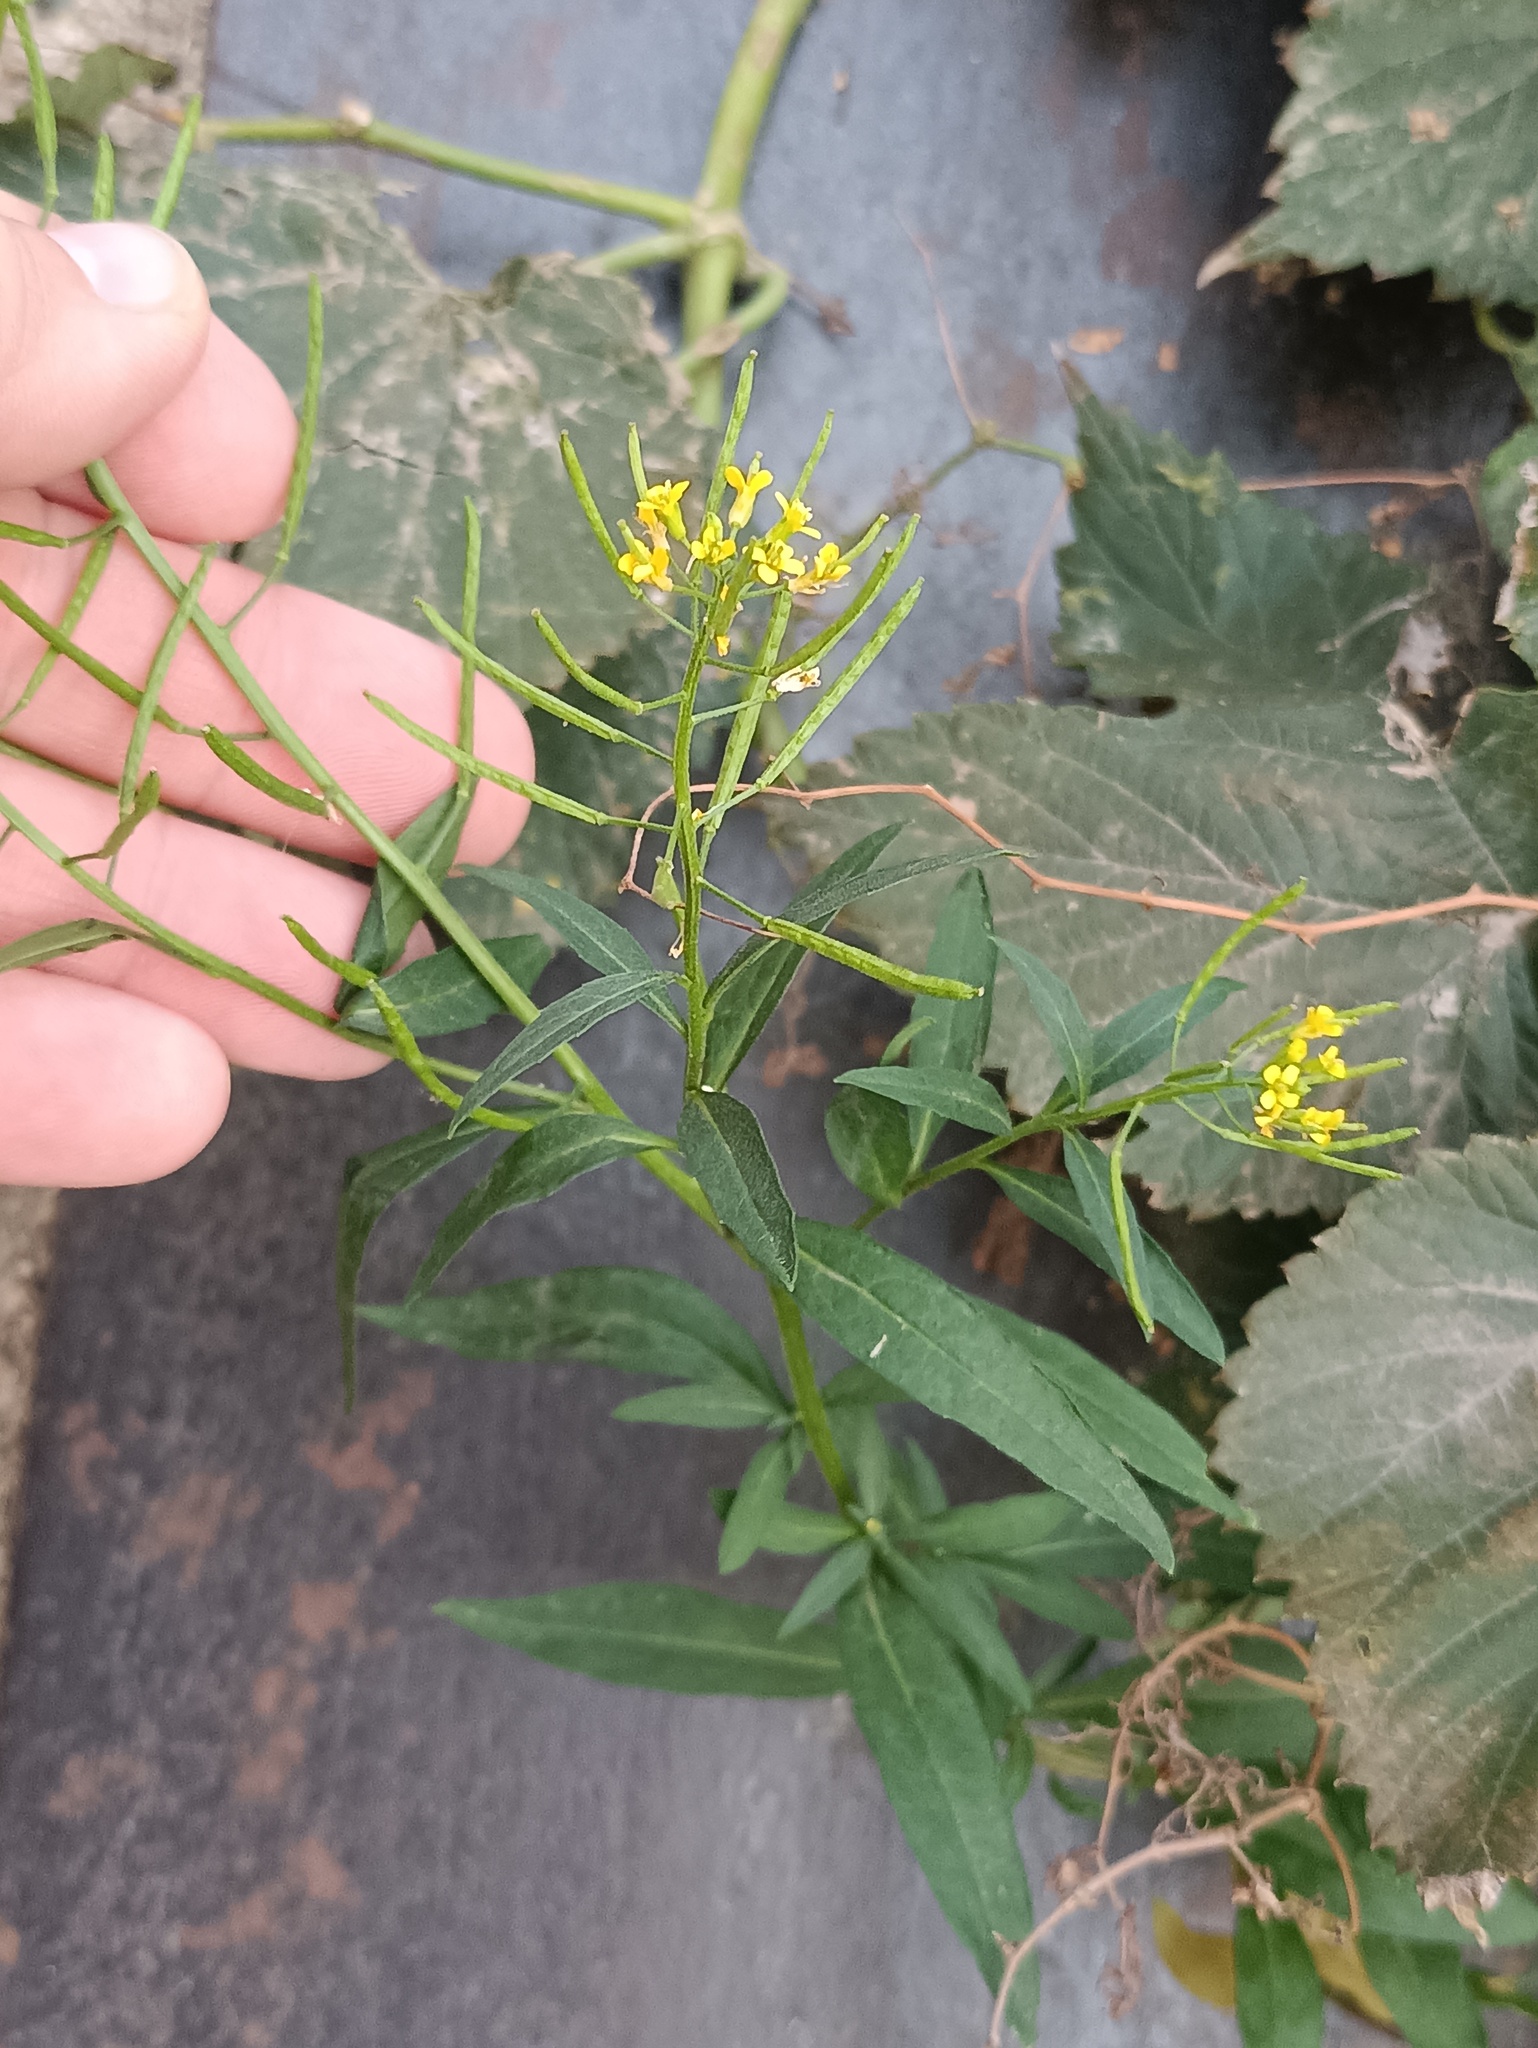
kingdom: Plantae
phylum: Tracheophyta
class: Magnoliopsida
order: Brassicales
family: Brassicaceae
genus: Erysimum
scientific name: Erysimum cheiranthoides
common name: Treacle mustard
